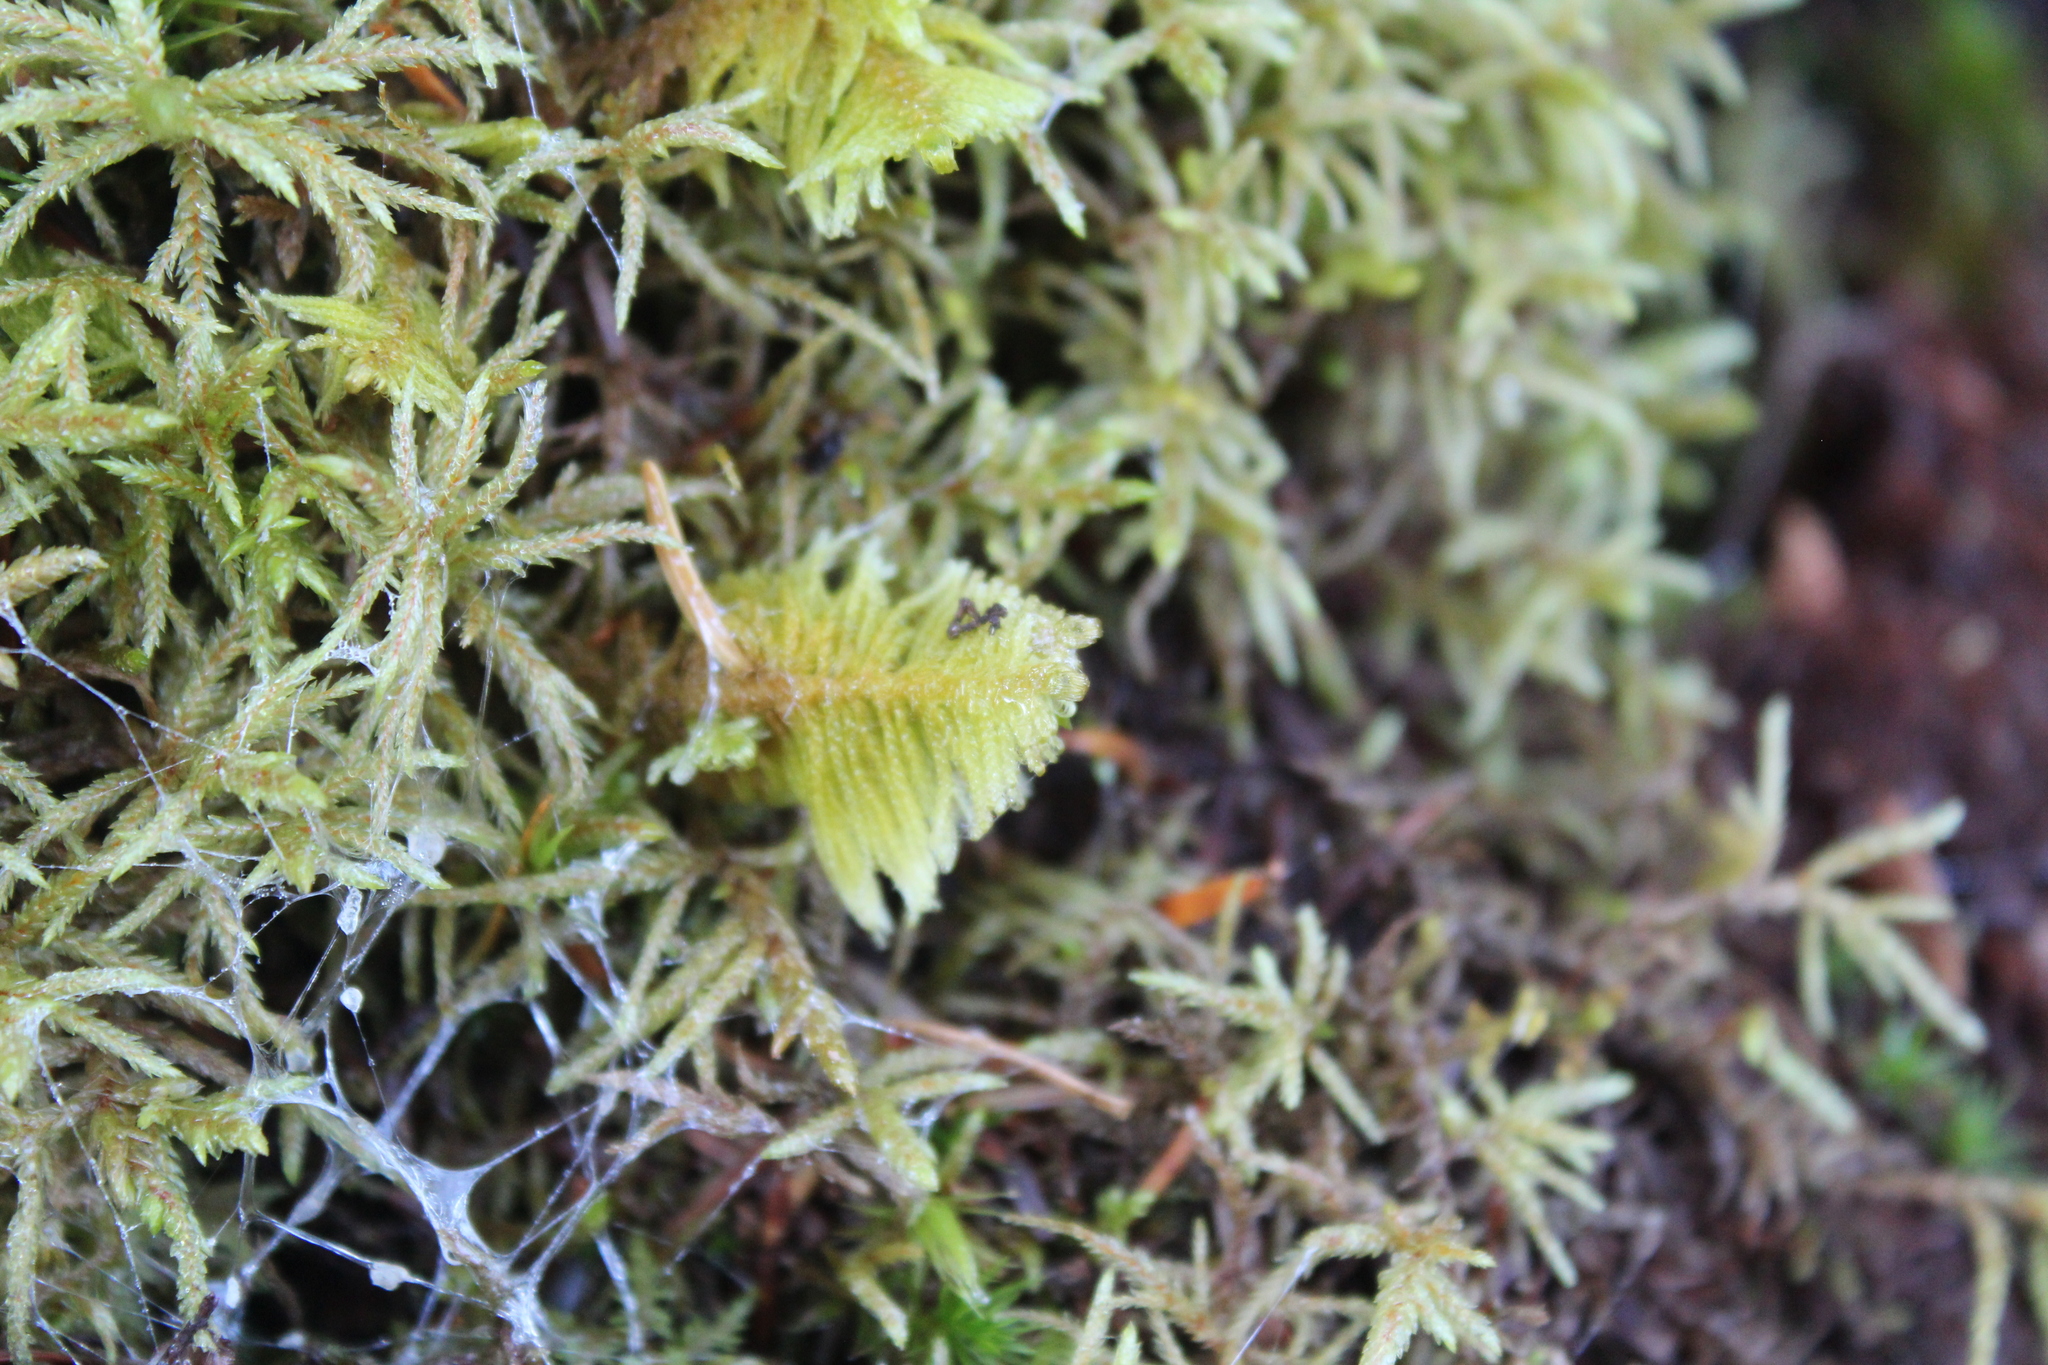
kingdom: Plantae
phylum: Bryophyta
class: Bryopsida
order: Hypnales
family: Pylaisiaceae
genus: Ptilium
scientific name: Ptilium crista-castrensis
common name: Knight's plume moss
